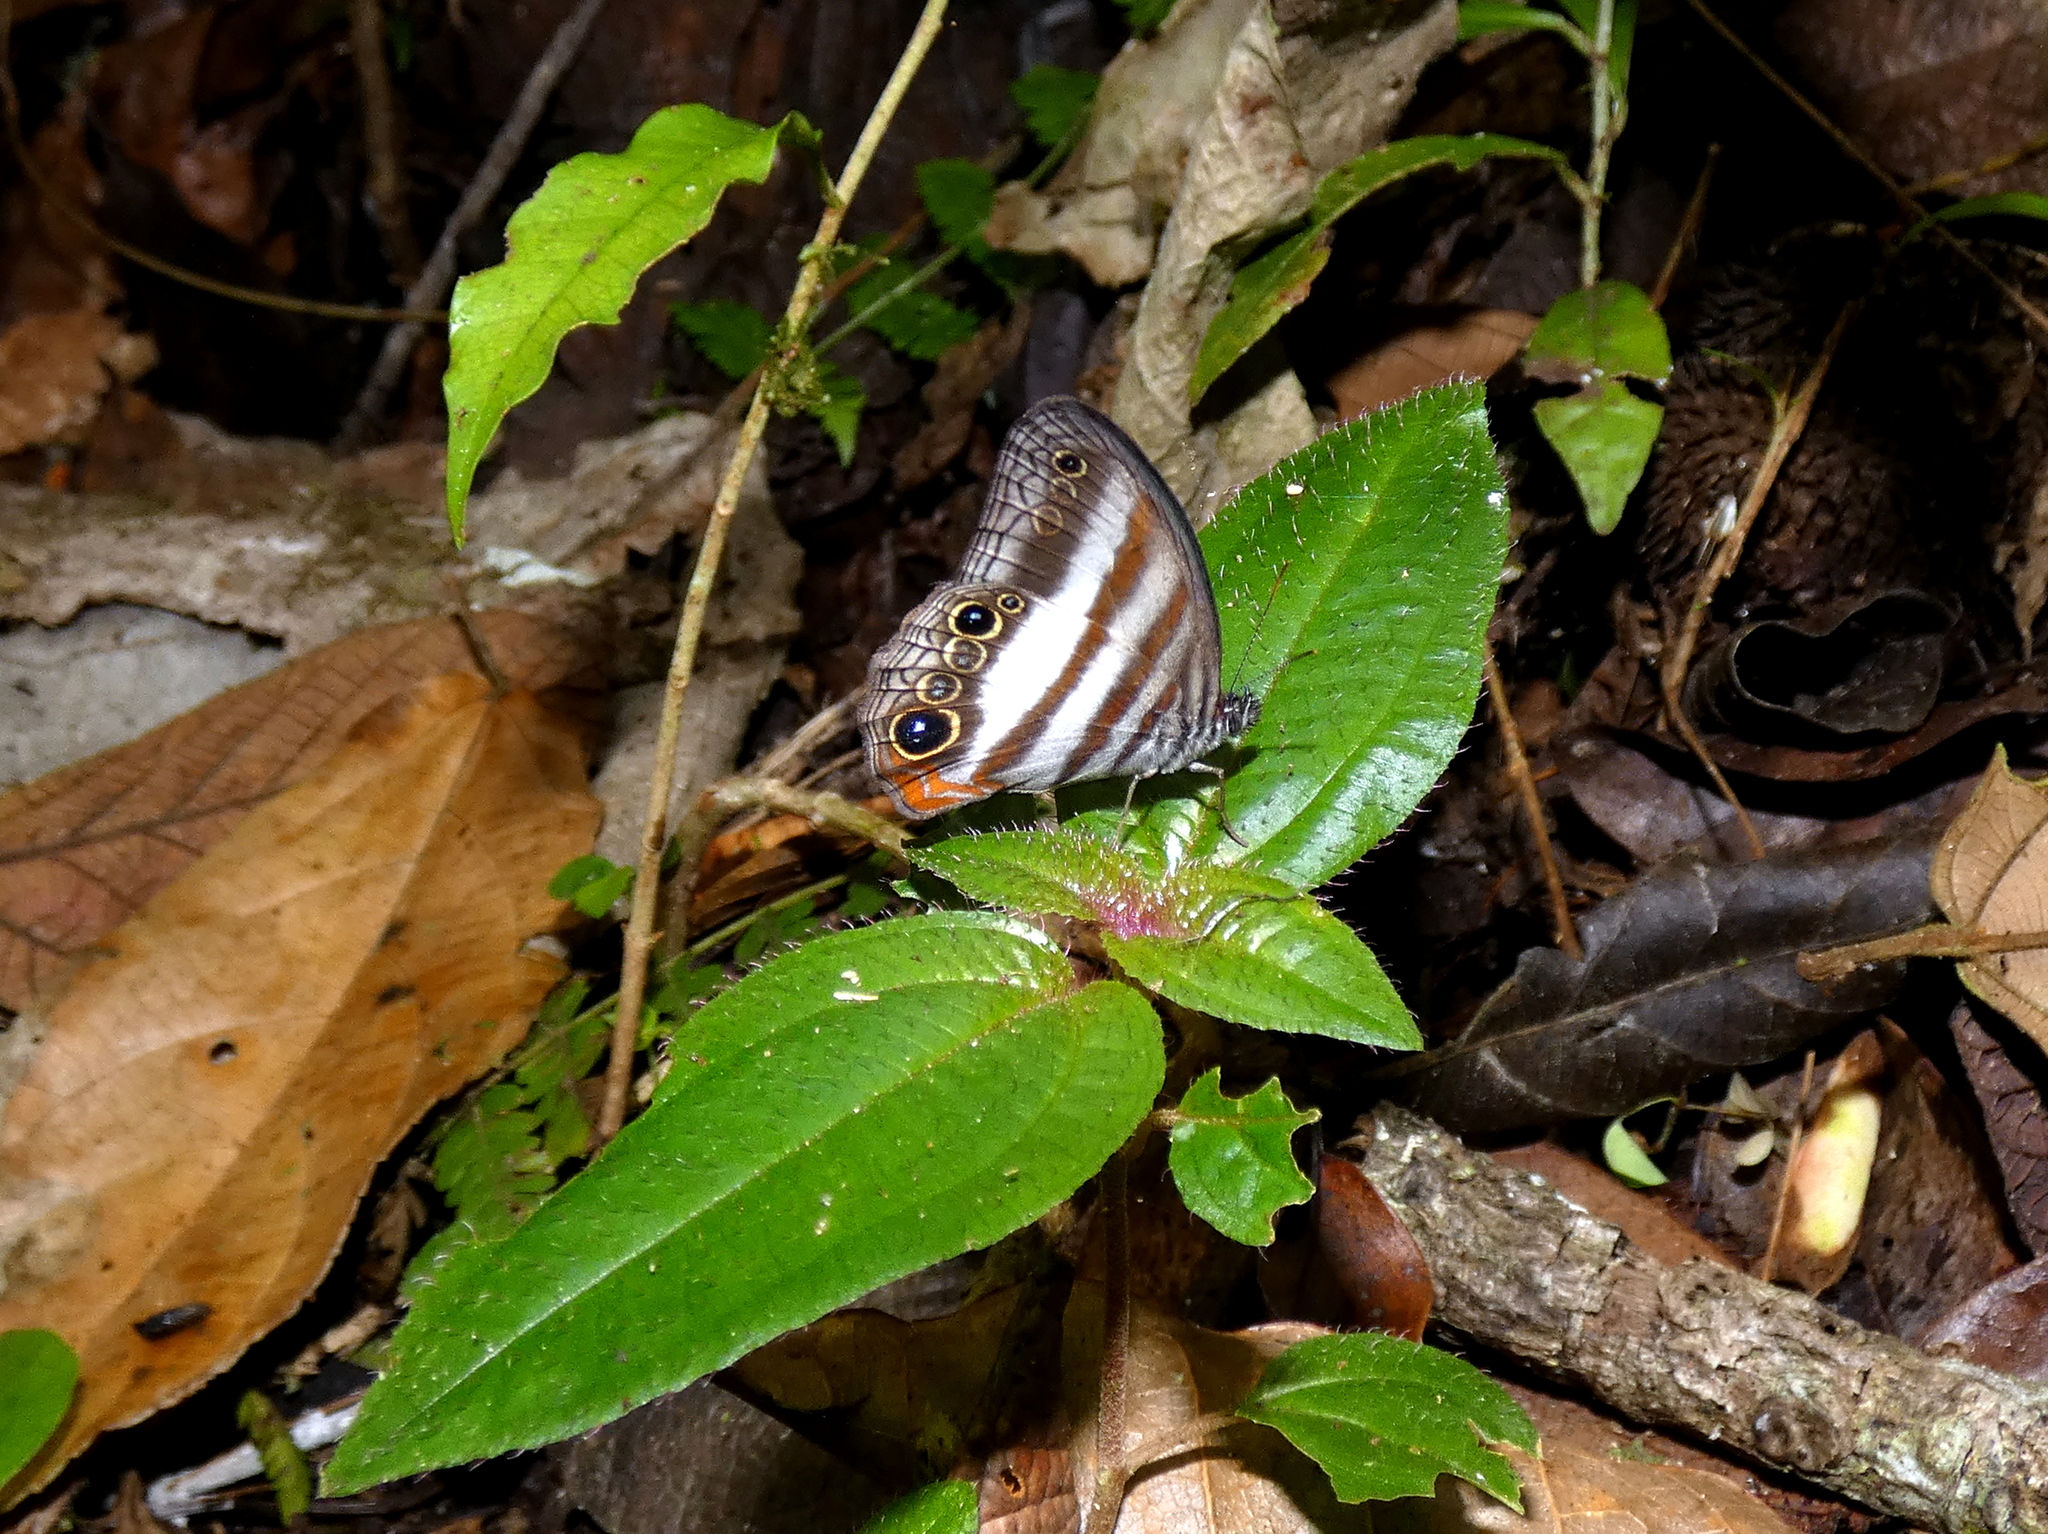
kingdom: Animalia
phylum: Arthropoda
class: Insecta
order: Lepidoptera
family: Nymphalidae
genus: Pareuptychia
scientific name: Pareuptychia hesione
